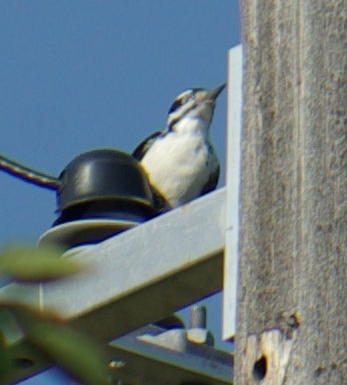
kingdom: Animalia
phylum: Chordata
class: Aves
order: Piciformes
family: Picidae
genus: Leuconotopicus
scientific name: Leuconotopicus villosus
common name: Hairy woodpecker
